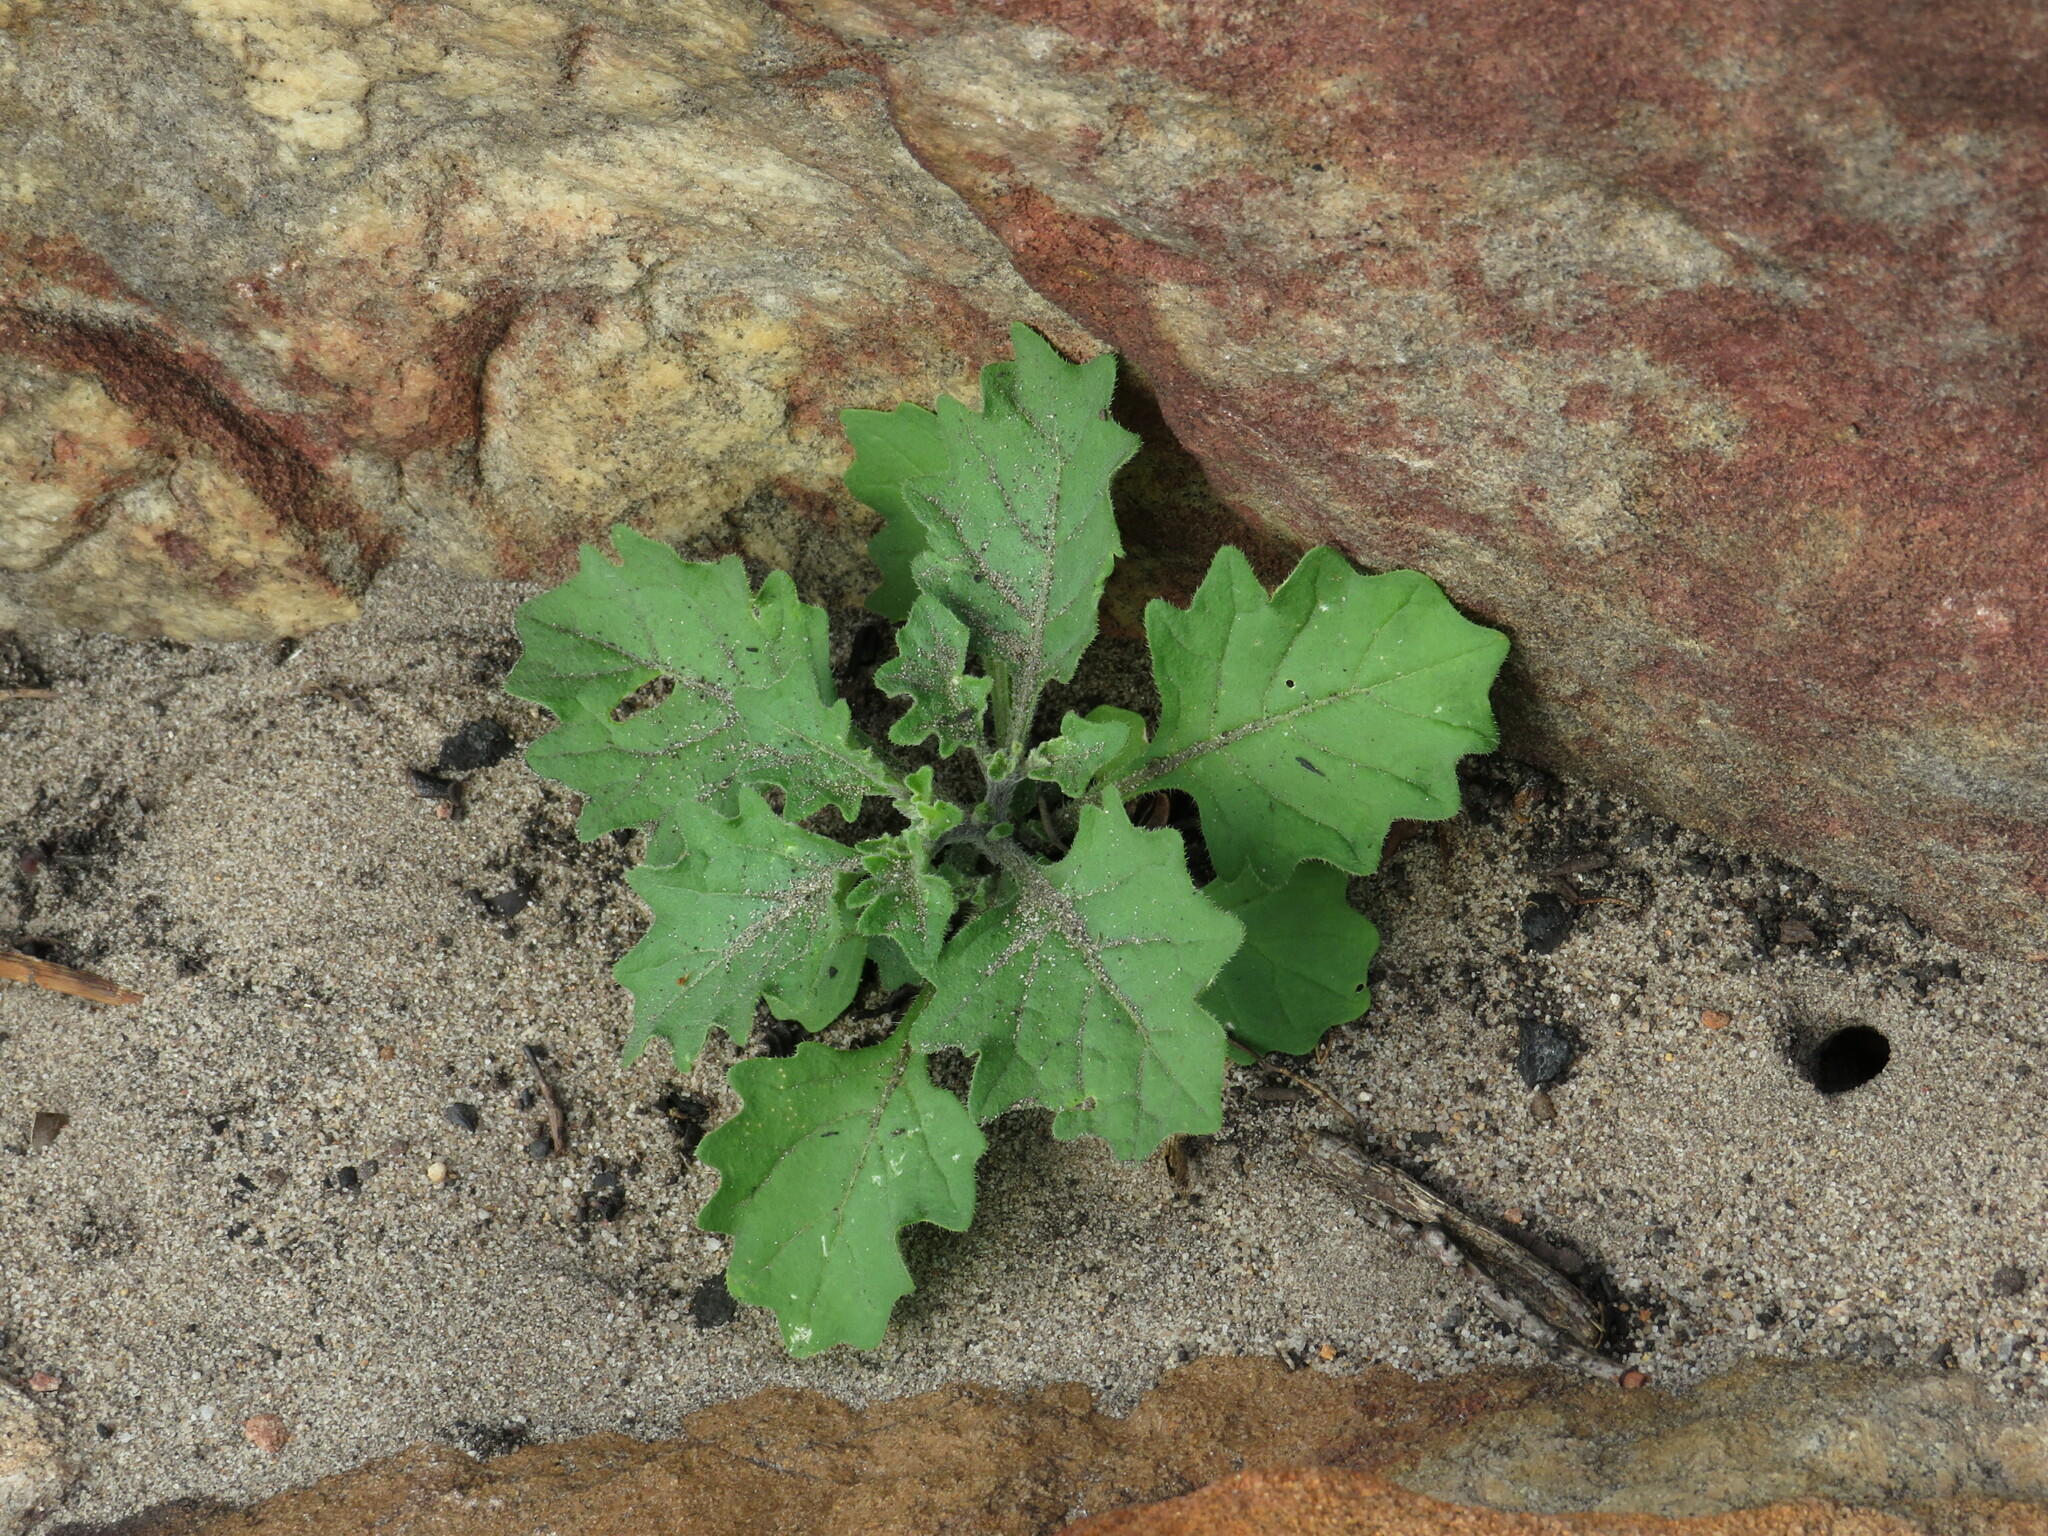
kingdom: Plantae
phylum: Tracheophyta
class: Magnoliopsida
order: Solanales
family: Solanaceae
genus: Solanum
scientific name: Solanum retroflexum
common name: Wonderberry
